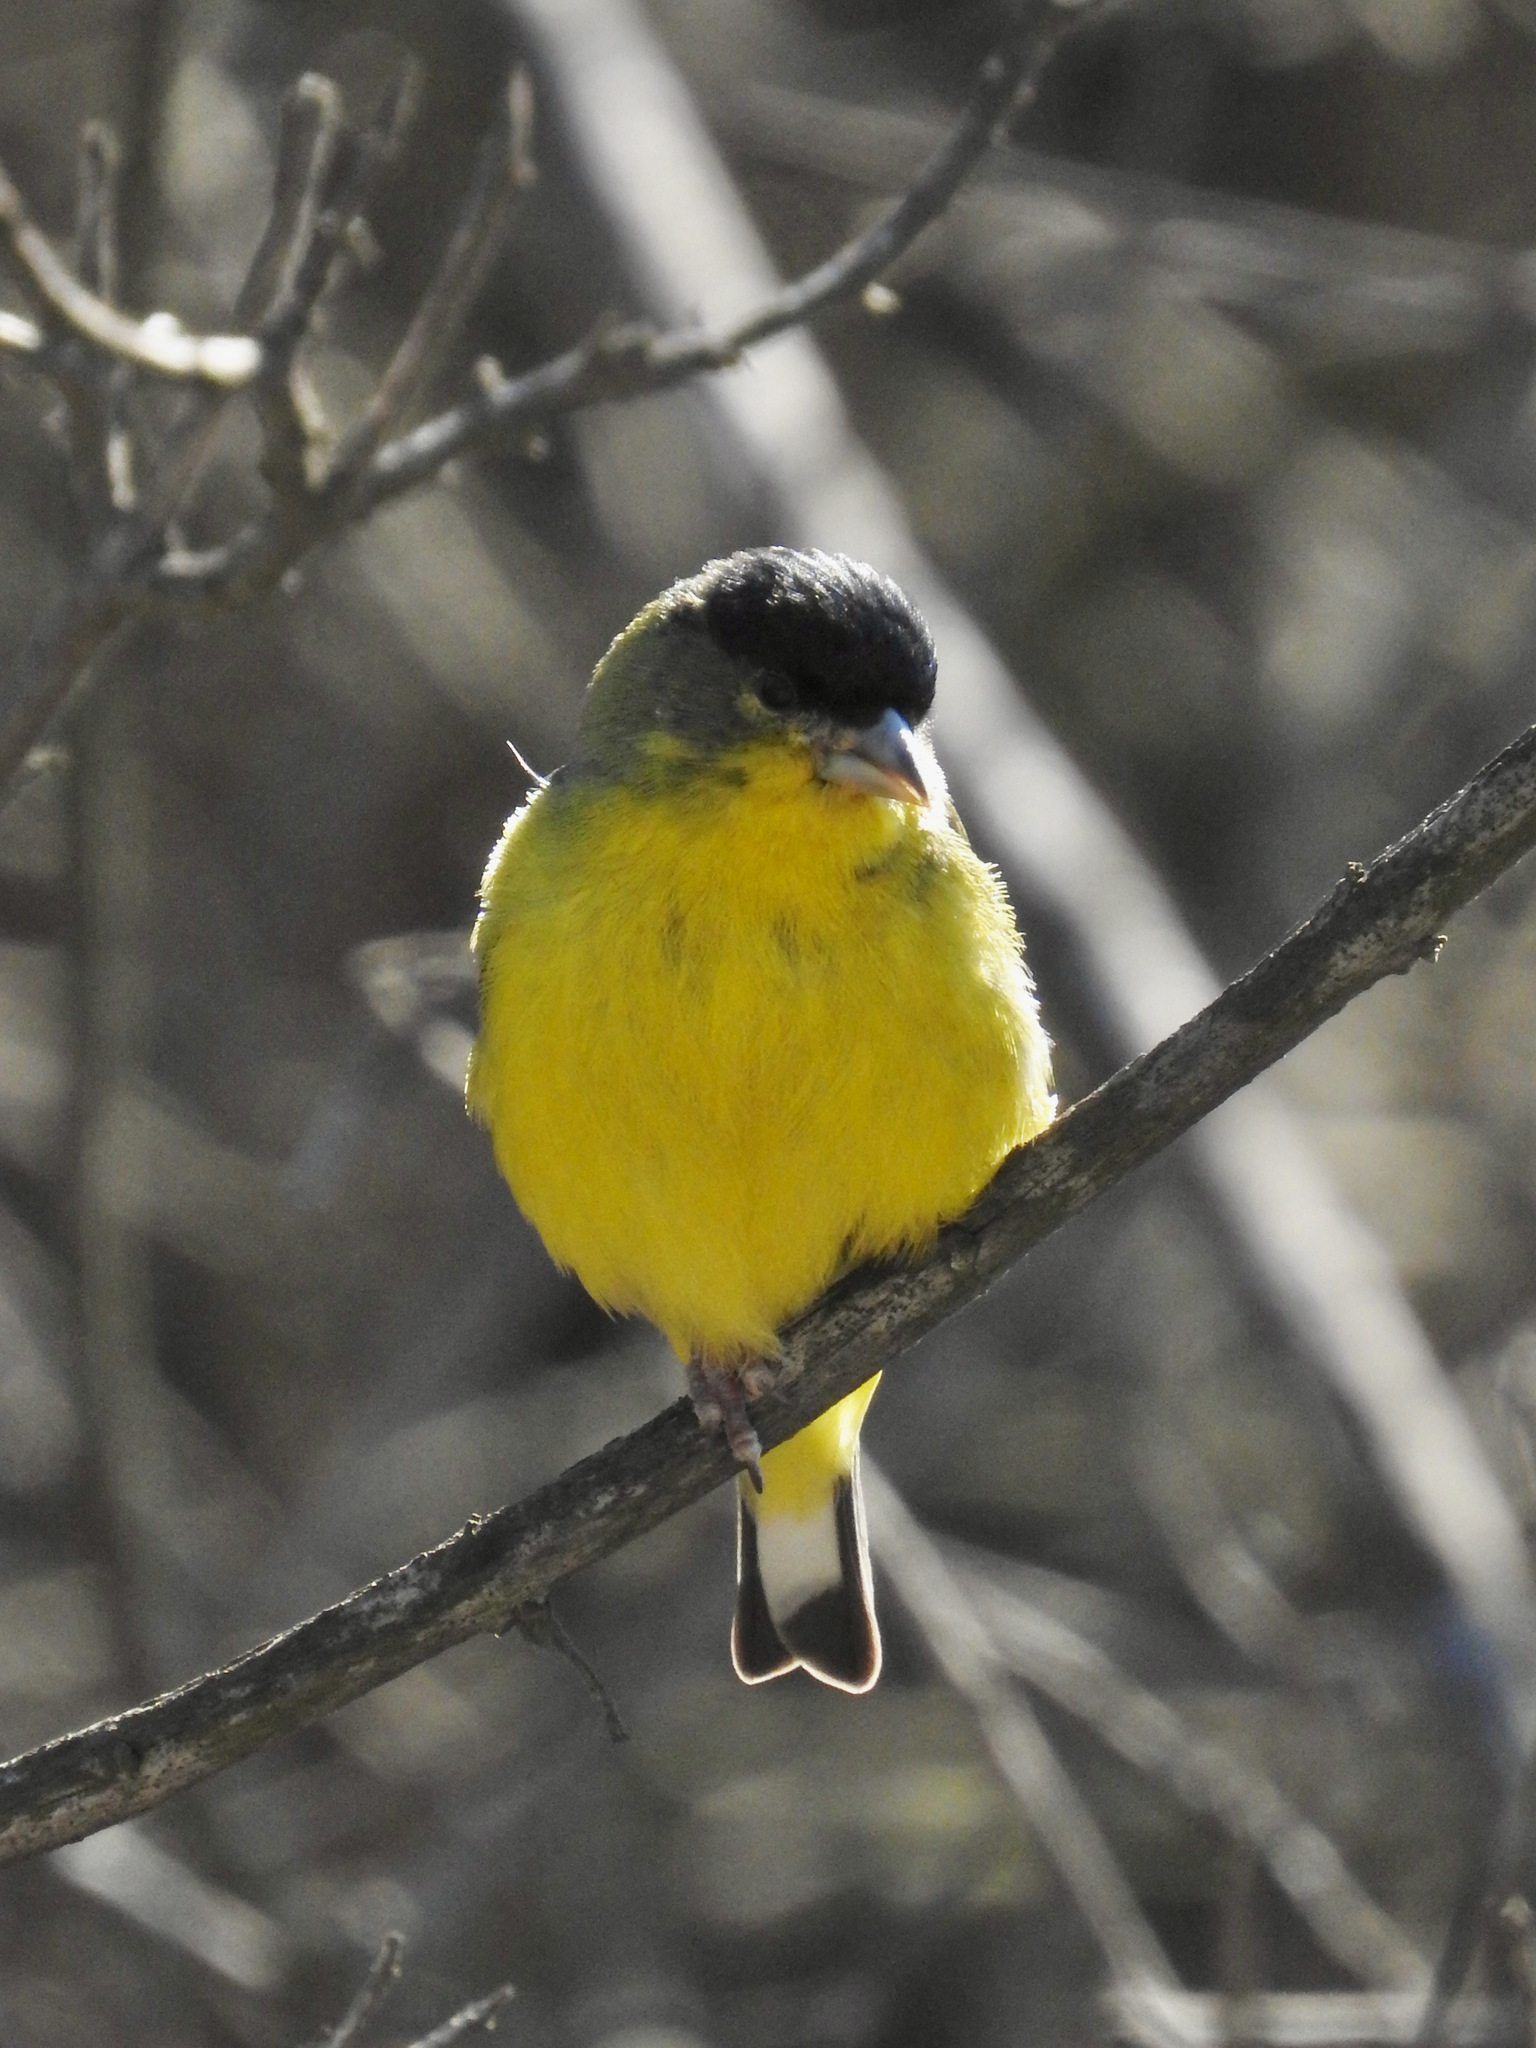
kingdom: Animalia
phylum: Chordata
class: Aves
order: Passeriformes
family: Fringillidae
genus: Spinus
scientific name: Spinus psaltria
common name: Lesser goldfinch
